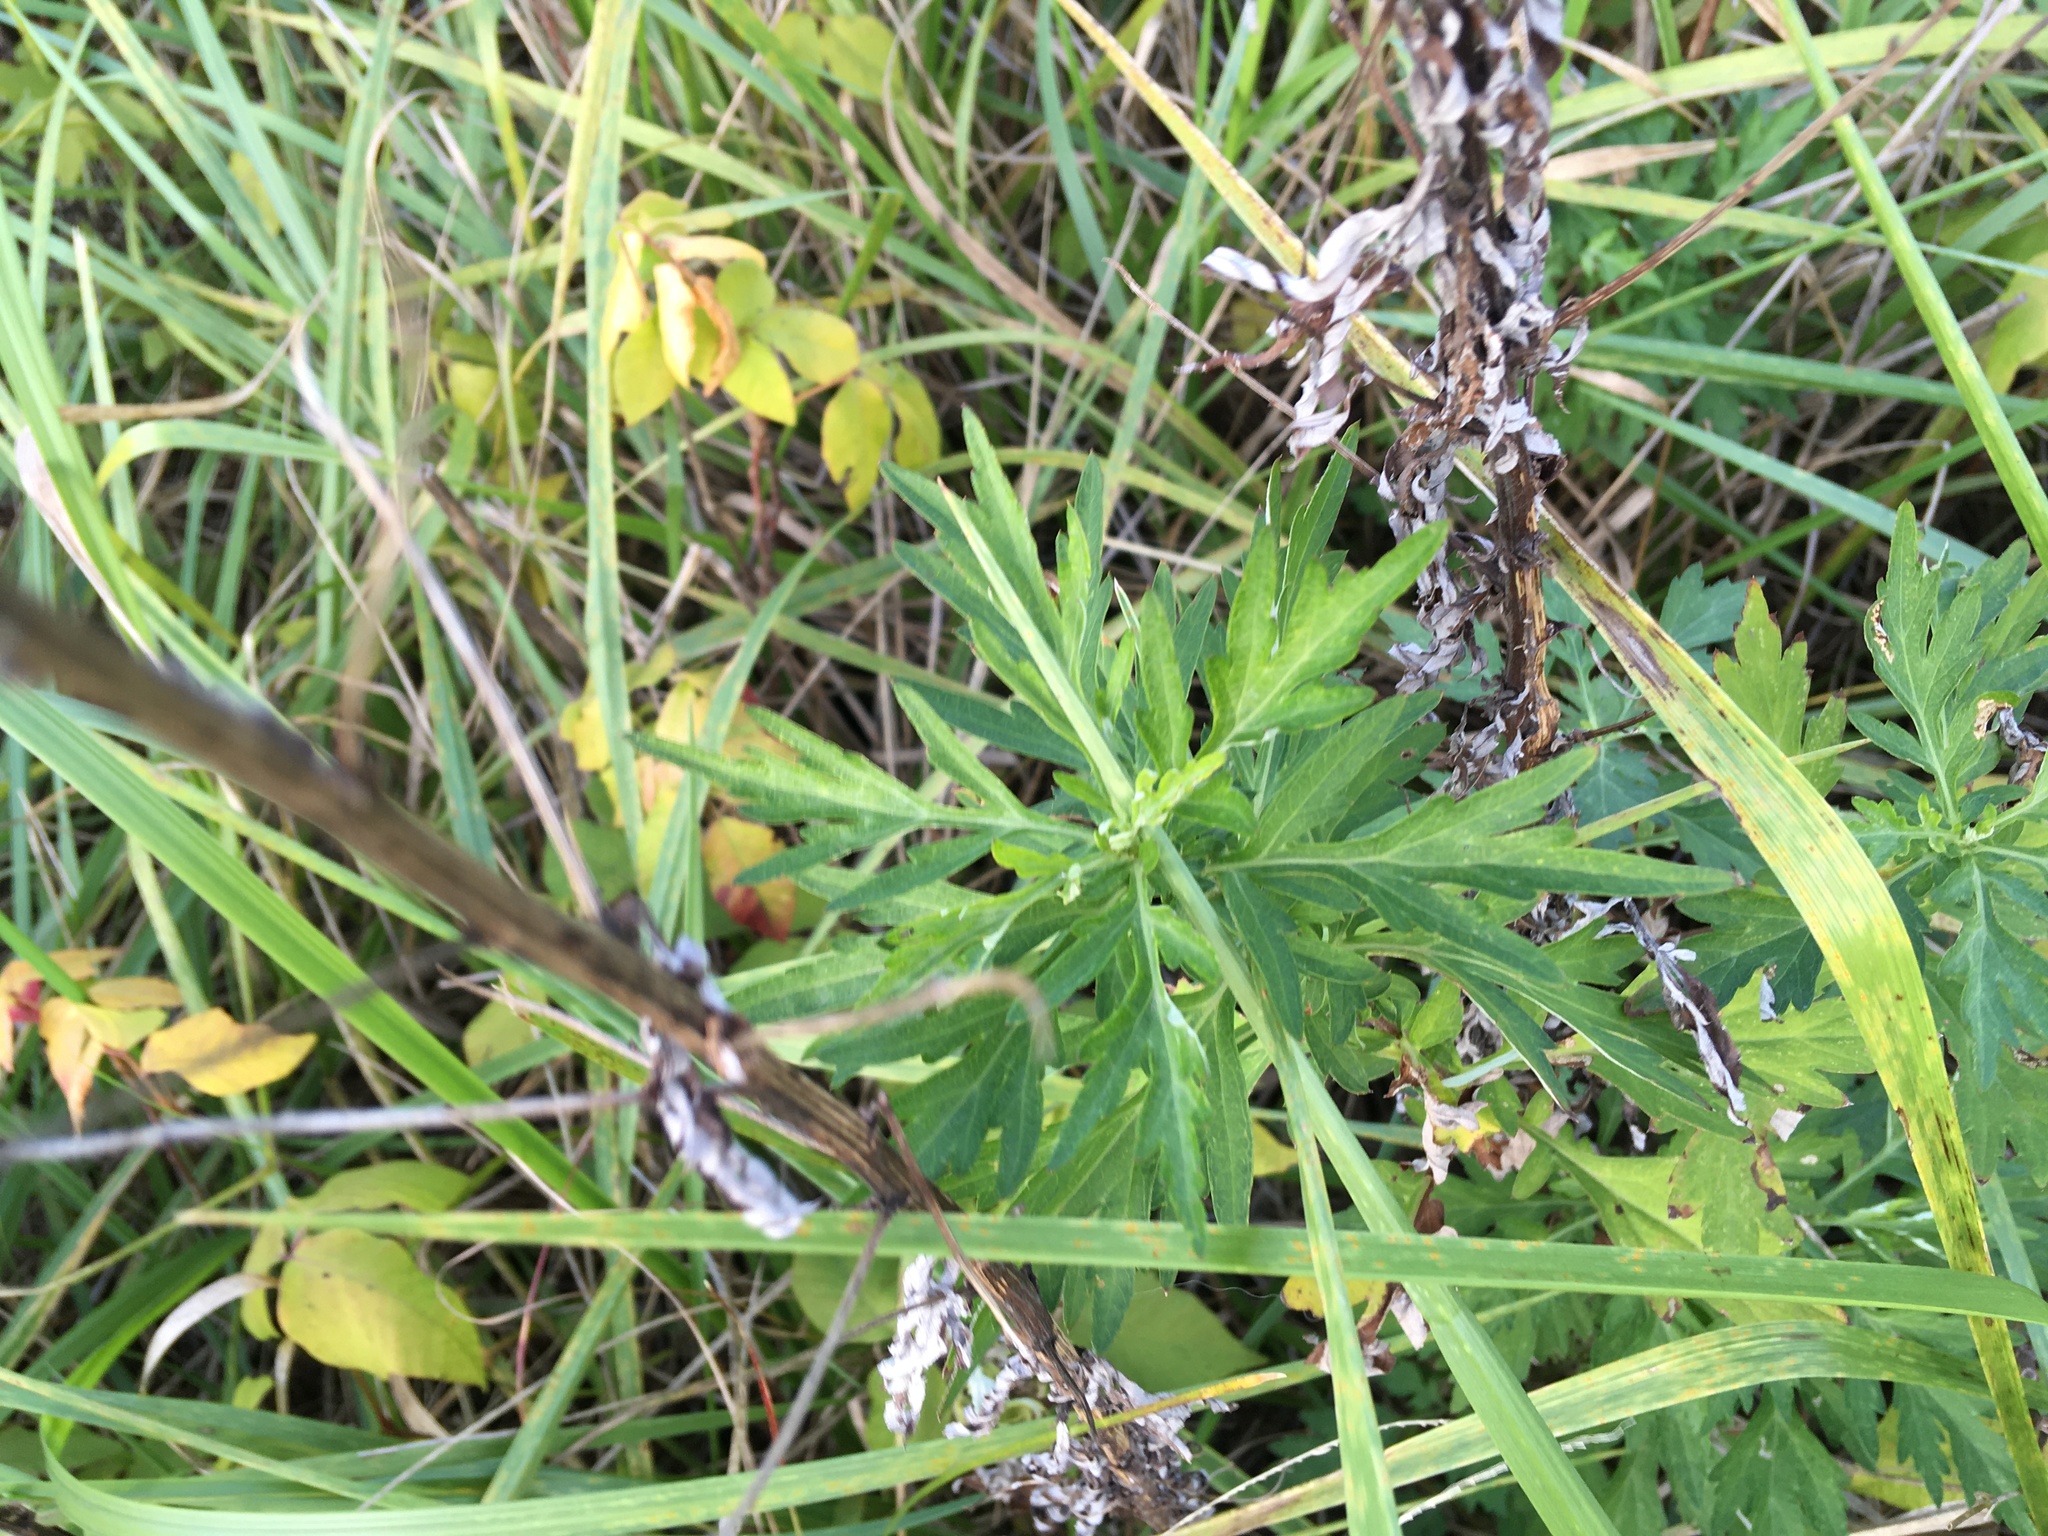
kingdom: Plantae
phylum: Tracheophyta
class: Magnoliopsida
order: Asterales
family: Asteraceae
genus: Artemisia
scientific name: Artemisia vulgaris
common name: Mugwort
